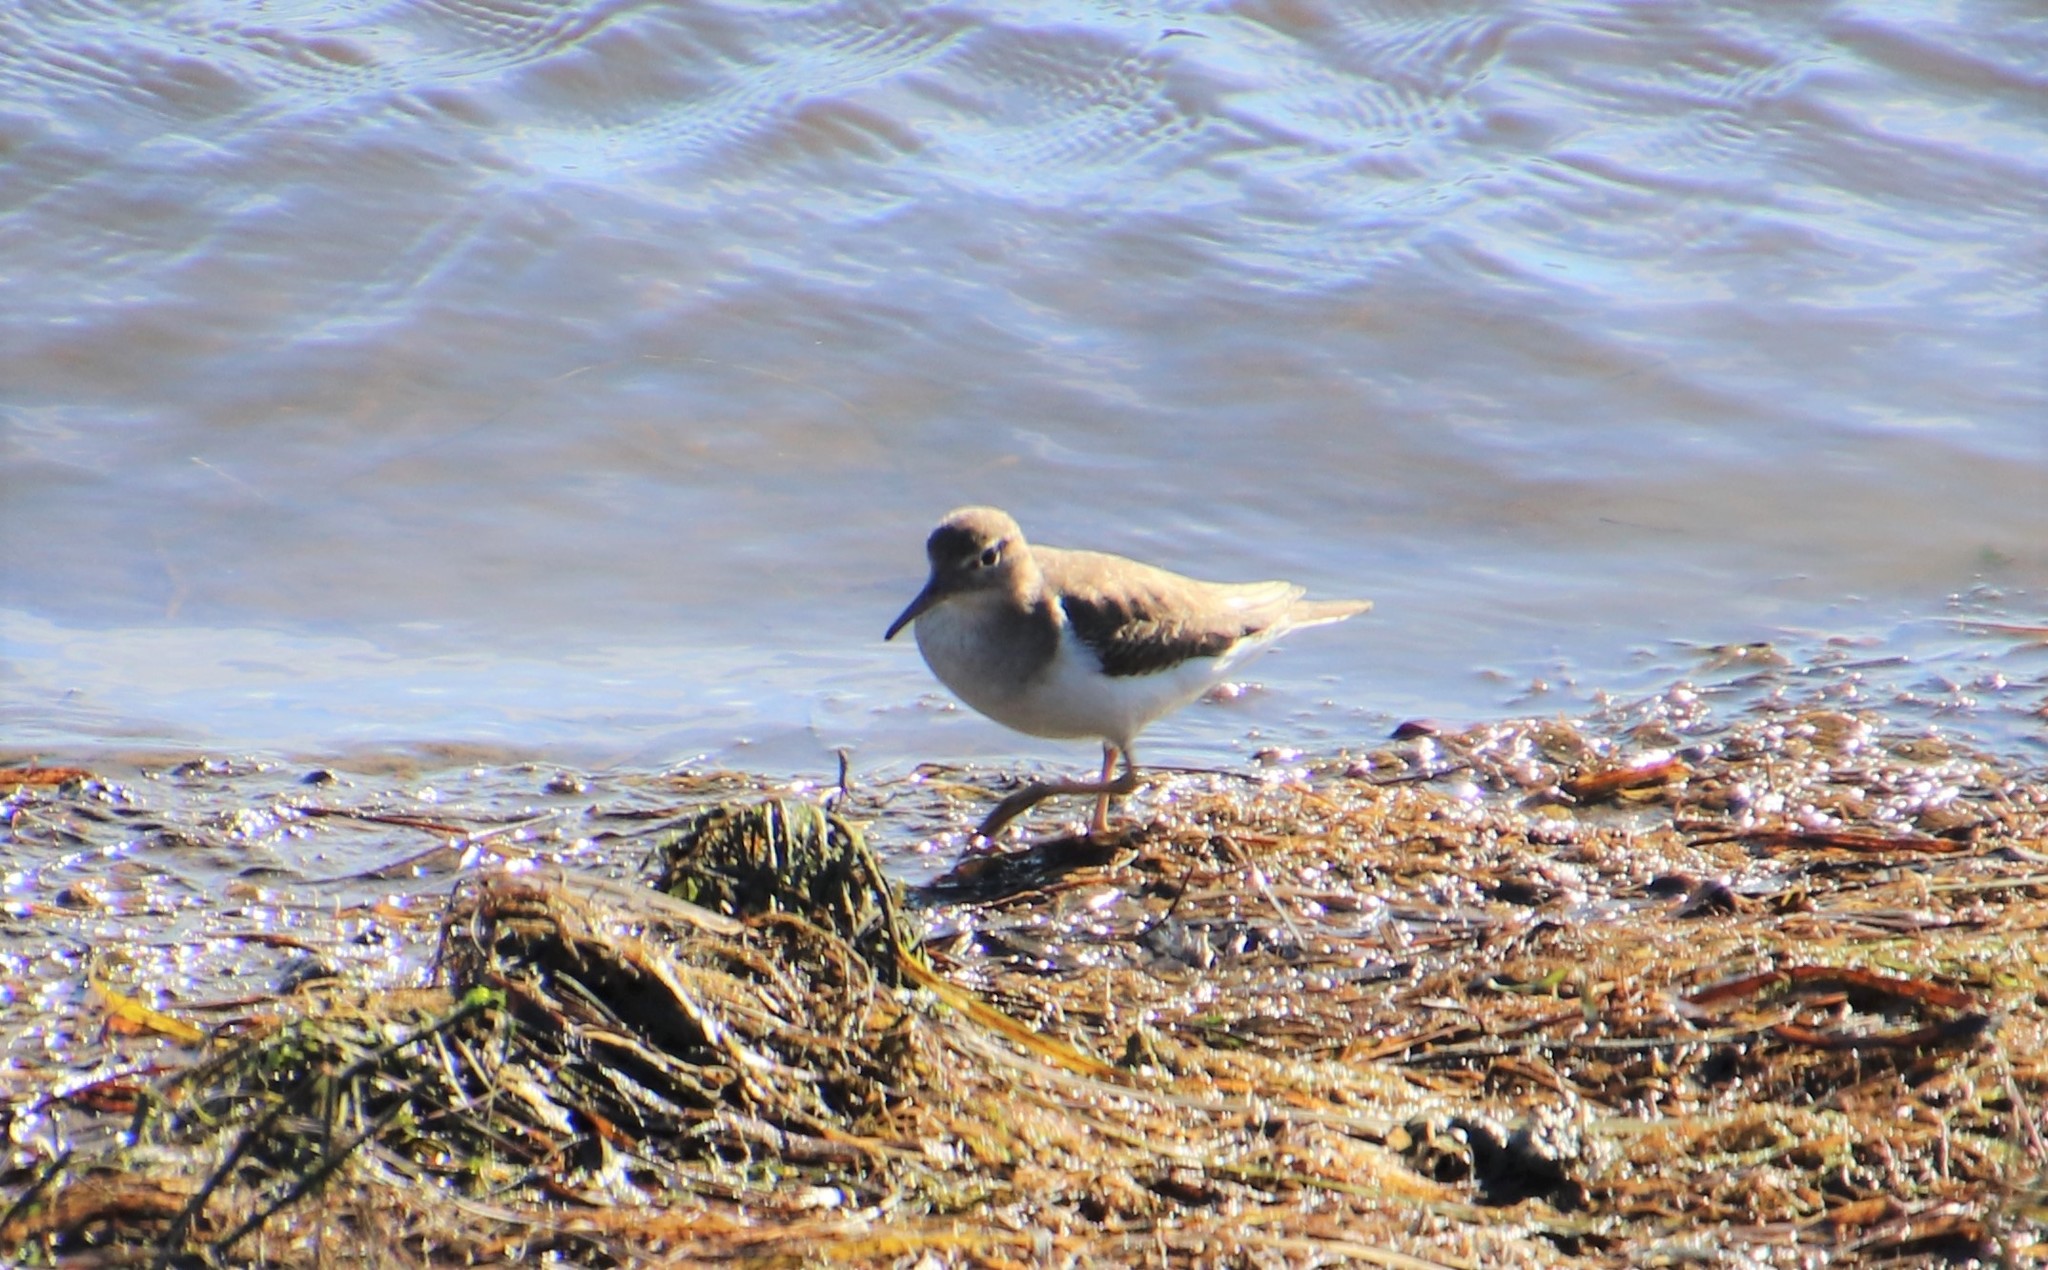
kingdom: Animalia
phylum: Chordata
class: Aves
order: Charadriiformes
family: Scolopacidae
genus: Actitis
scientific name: Actitis macularius
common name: Spotted sandpiper
